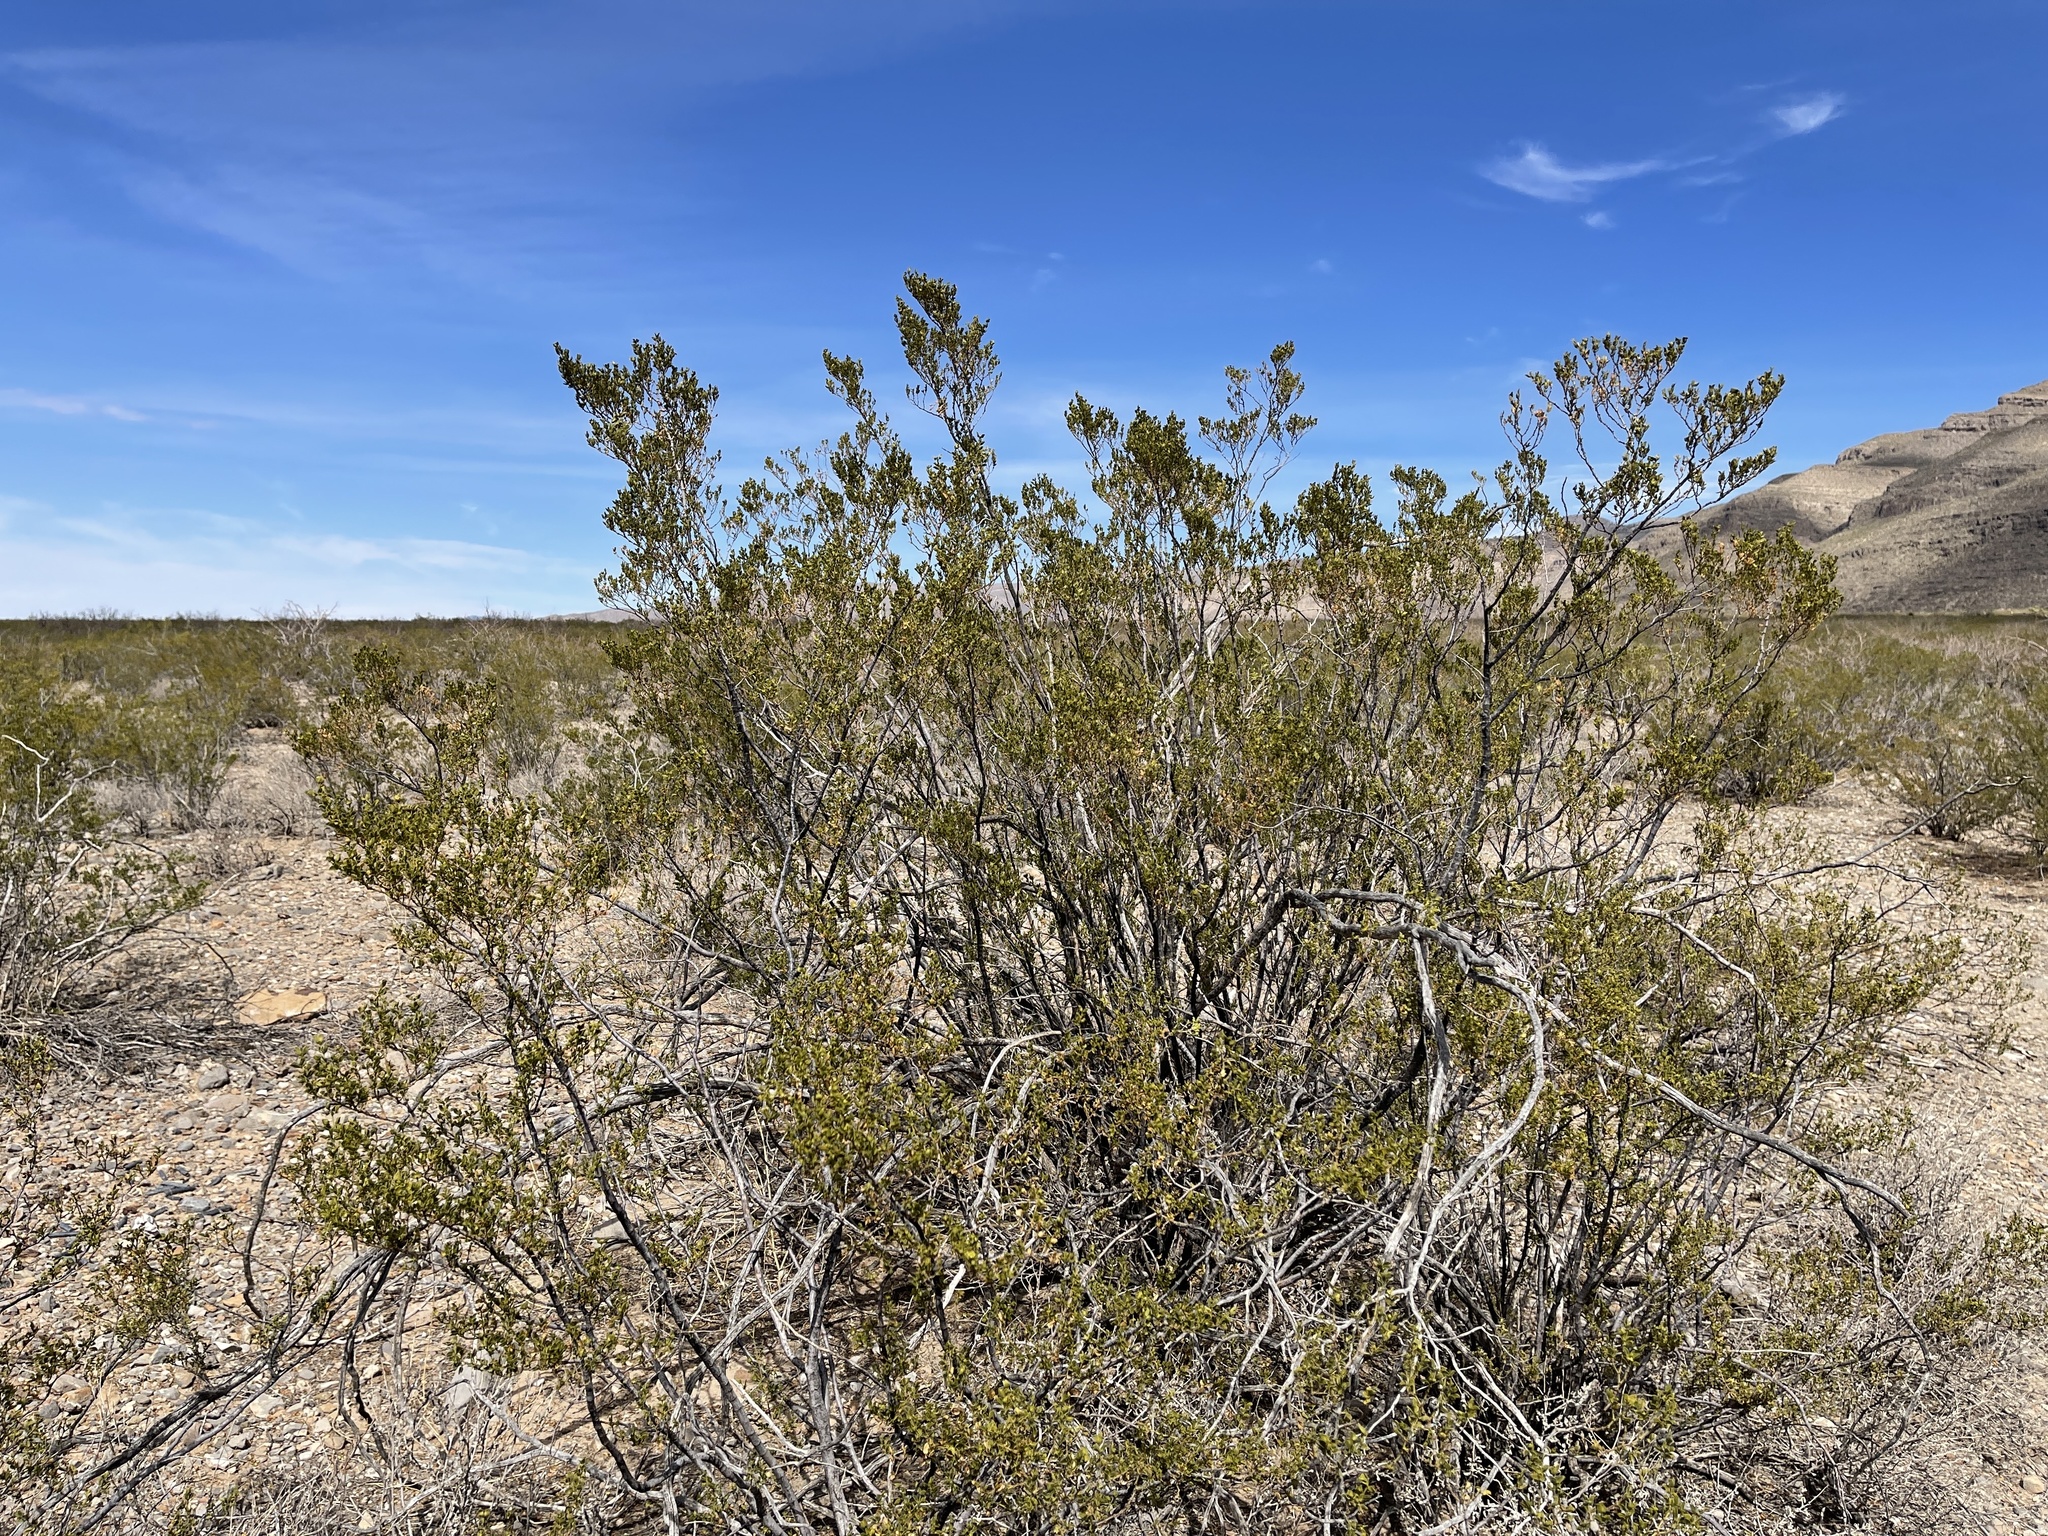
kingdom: Plantae
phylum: Tracheophyta
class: Magnoliopsida
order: Zygophyllales
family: Zygophyllaceae
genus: Larrea
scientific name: Larrea tridentata
